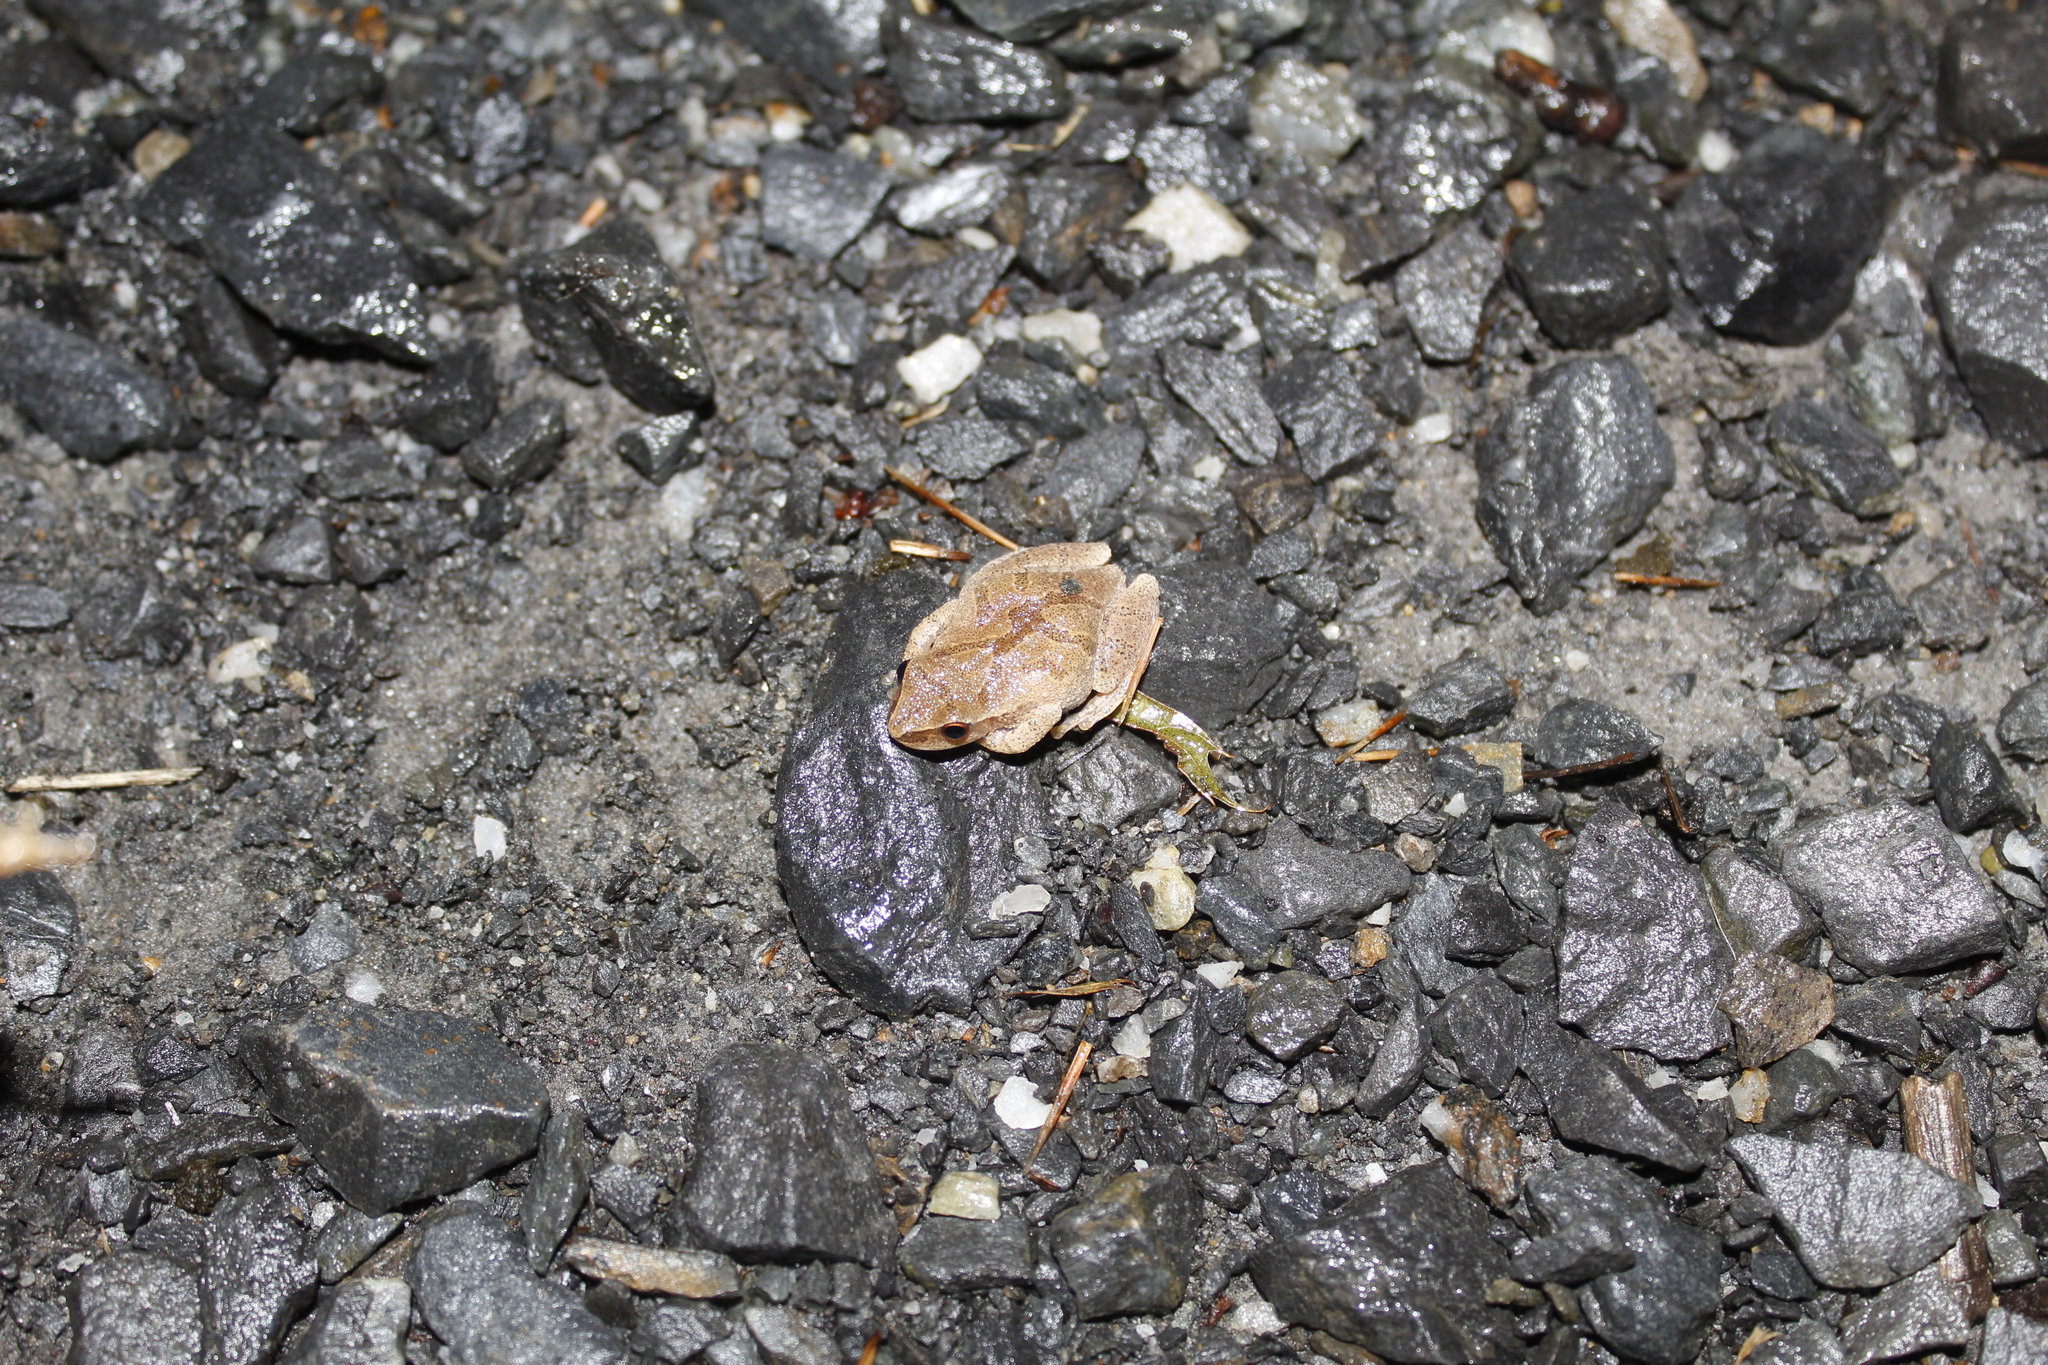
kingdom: Animalia
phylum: Chordata
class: Amphibia
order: Anura
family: Hylidae
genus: Pseudacris
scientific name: Pseudacris crucifer
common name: Spring peeper
